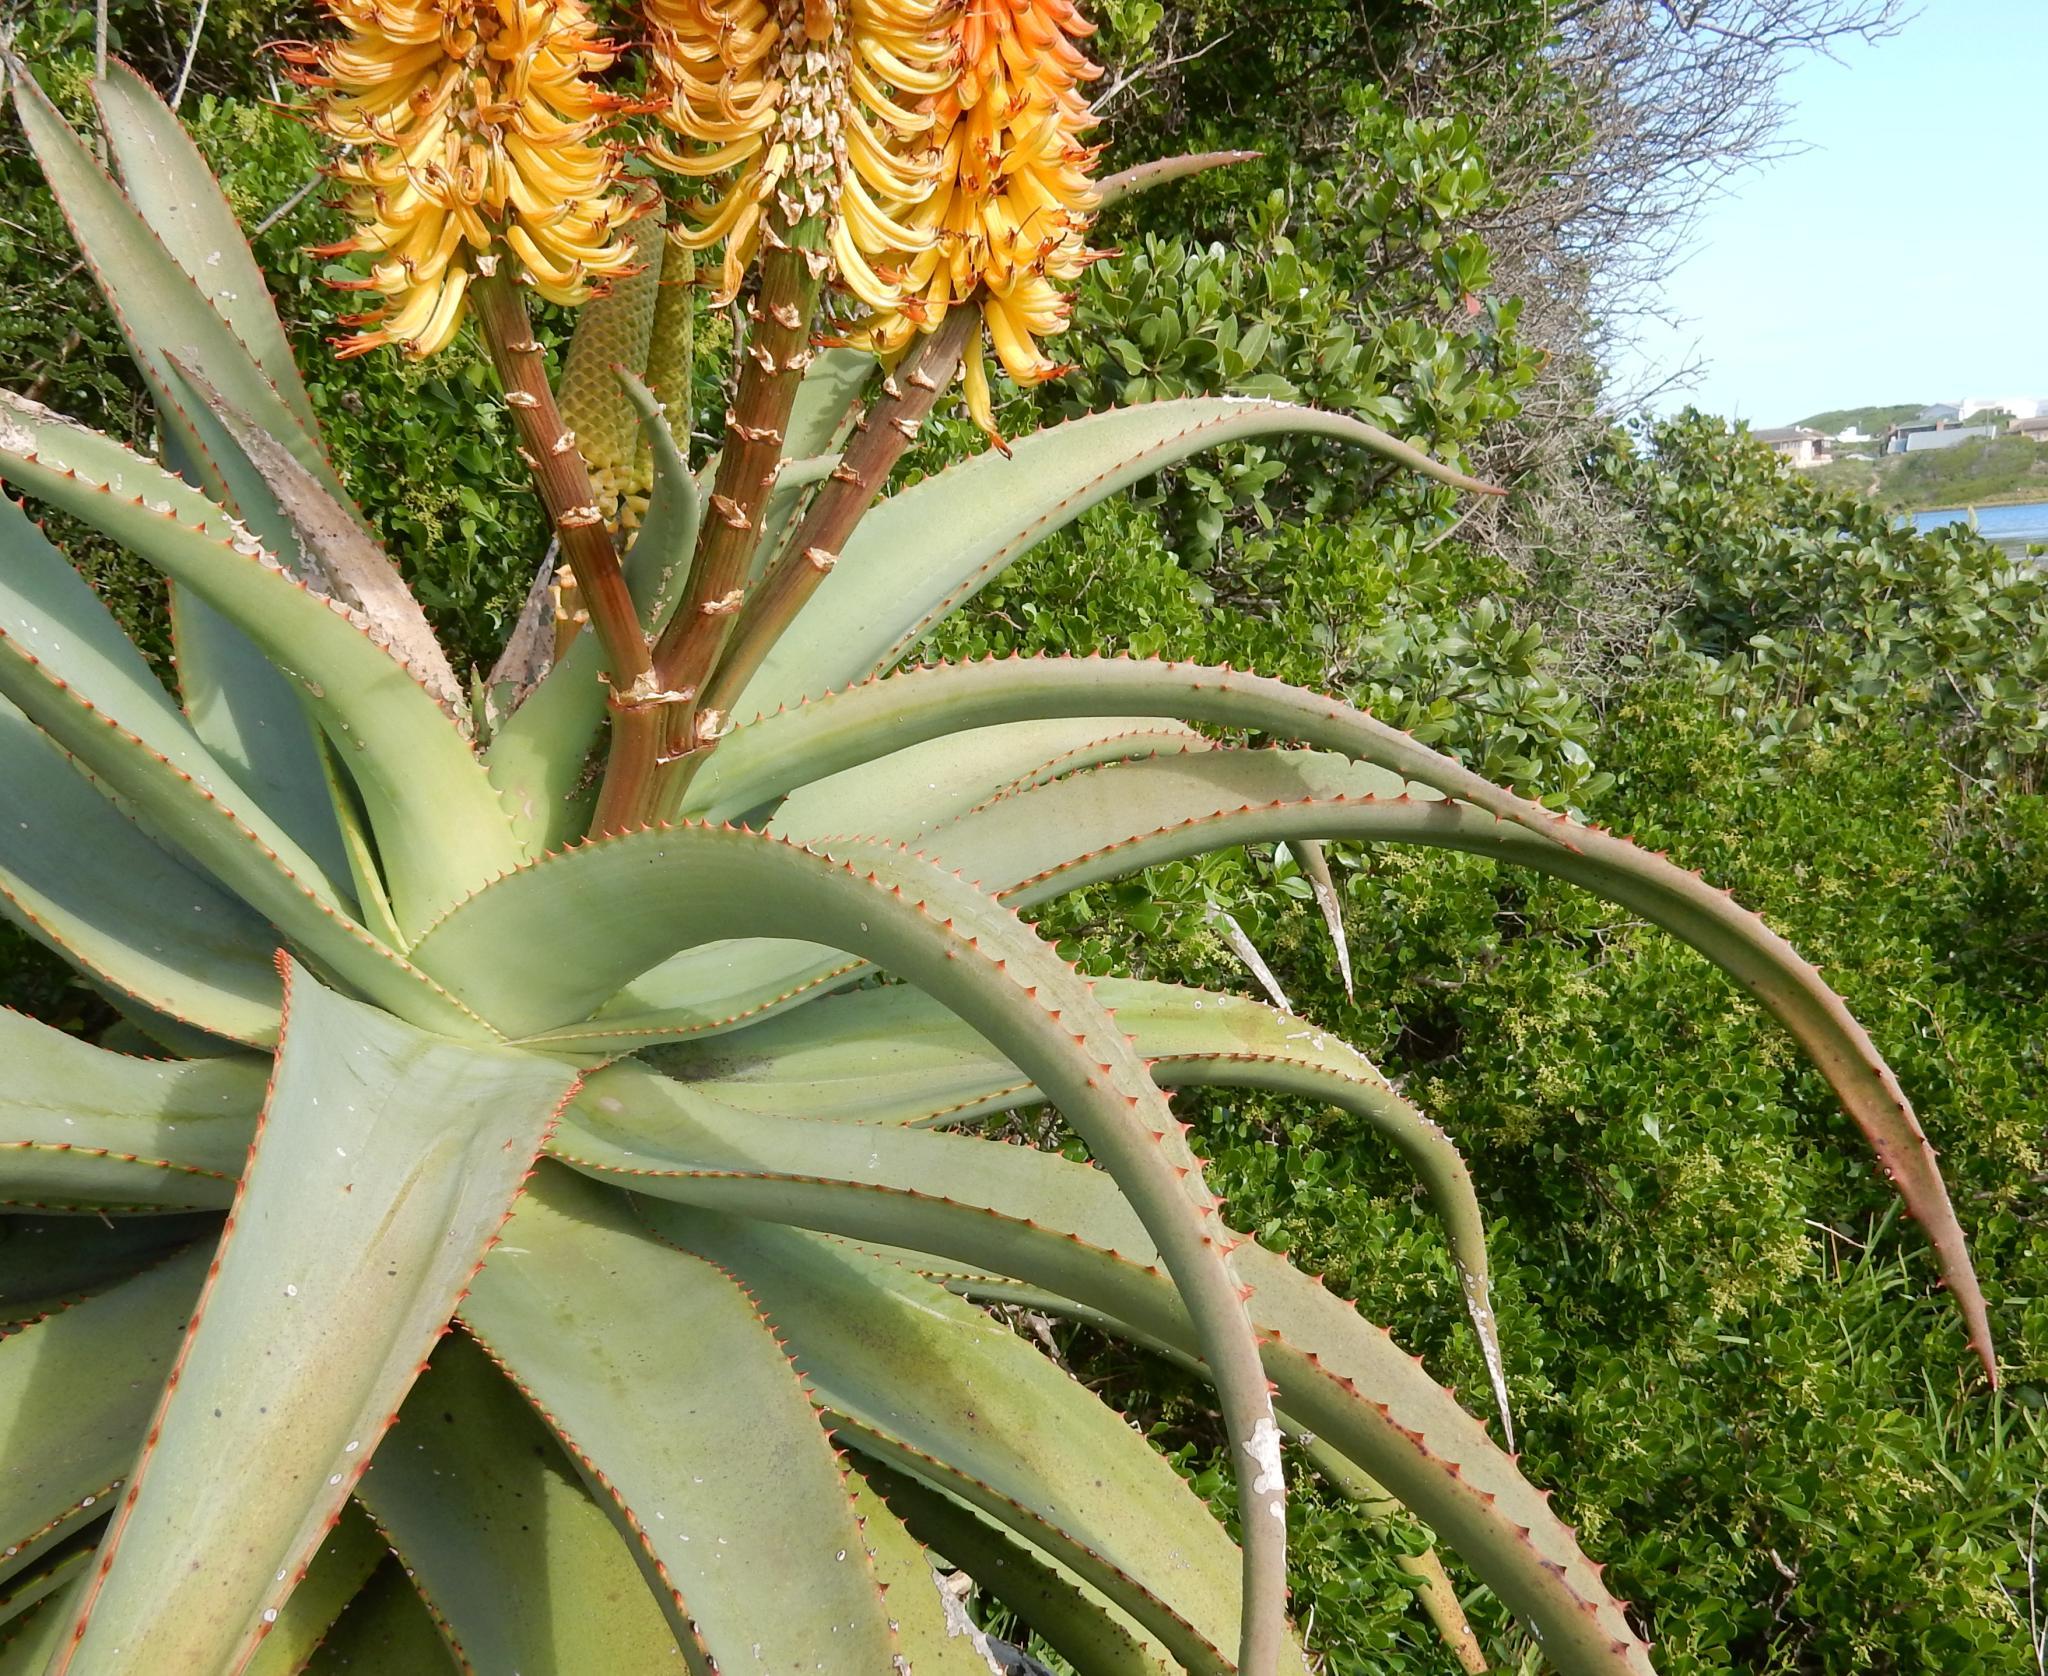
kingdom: Plantae
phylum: Tracheophyta
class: Liliopsida
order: Asparagales
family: Asphodelaceae
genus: Aloe
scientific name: Aloe africana
